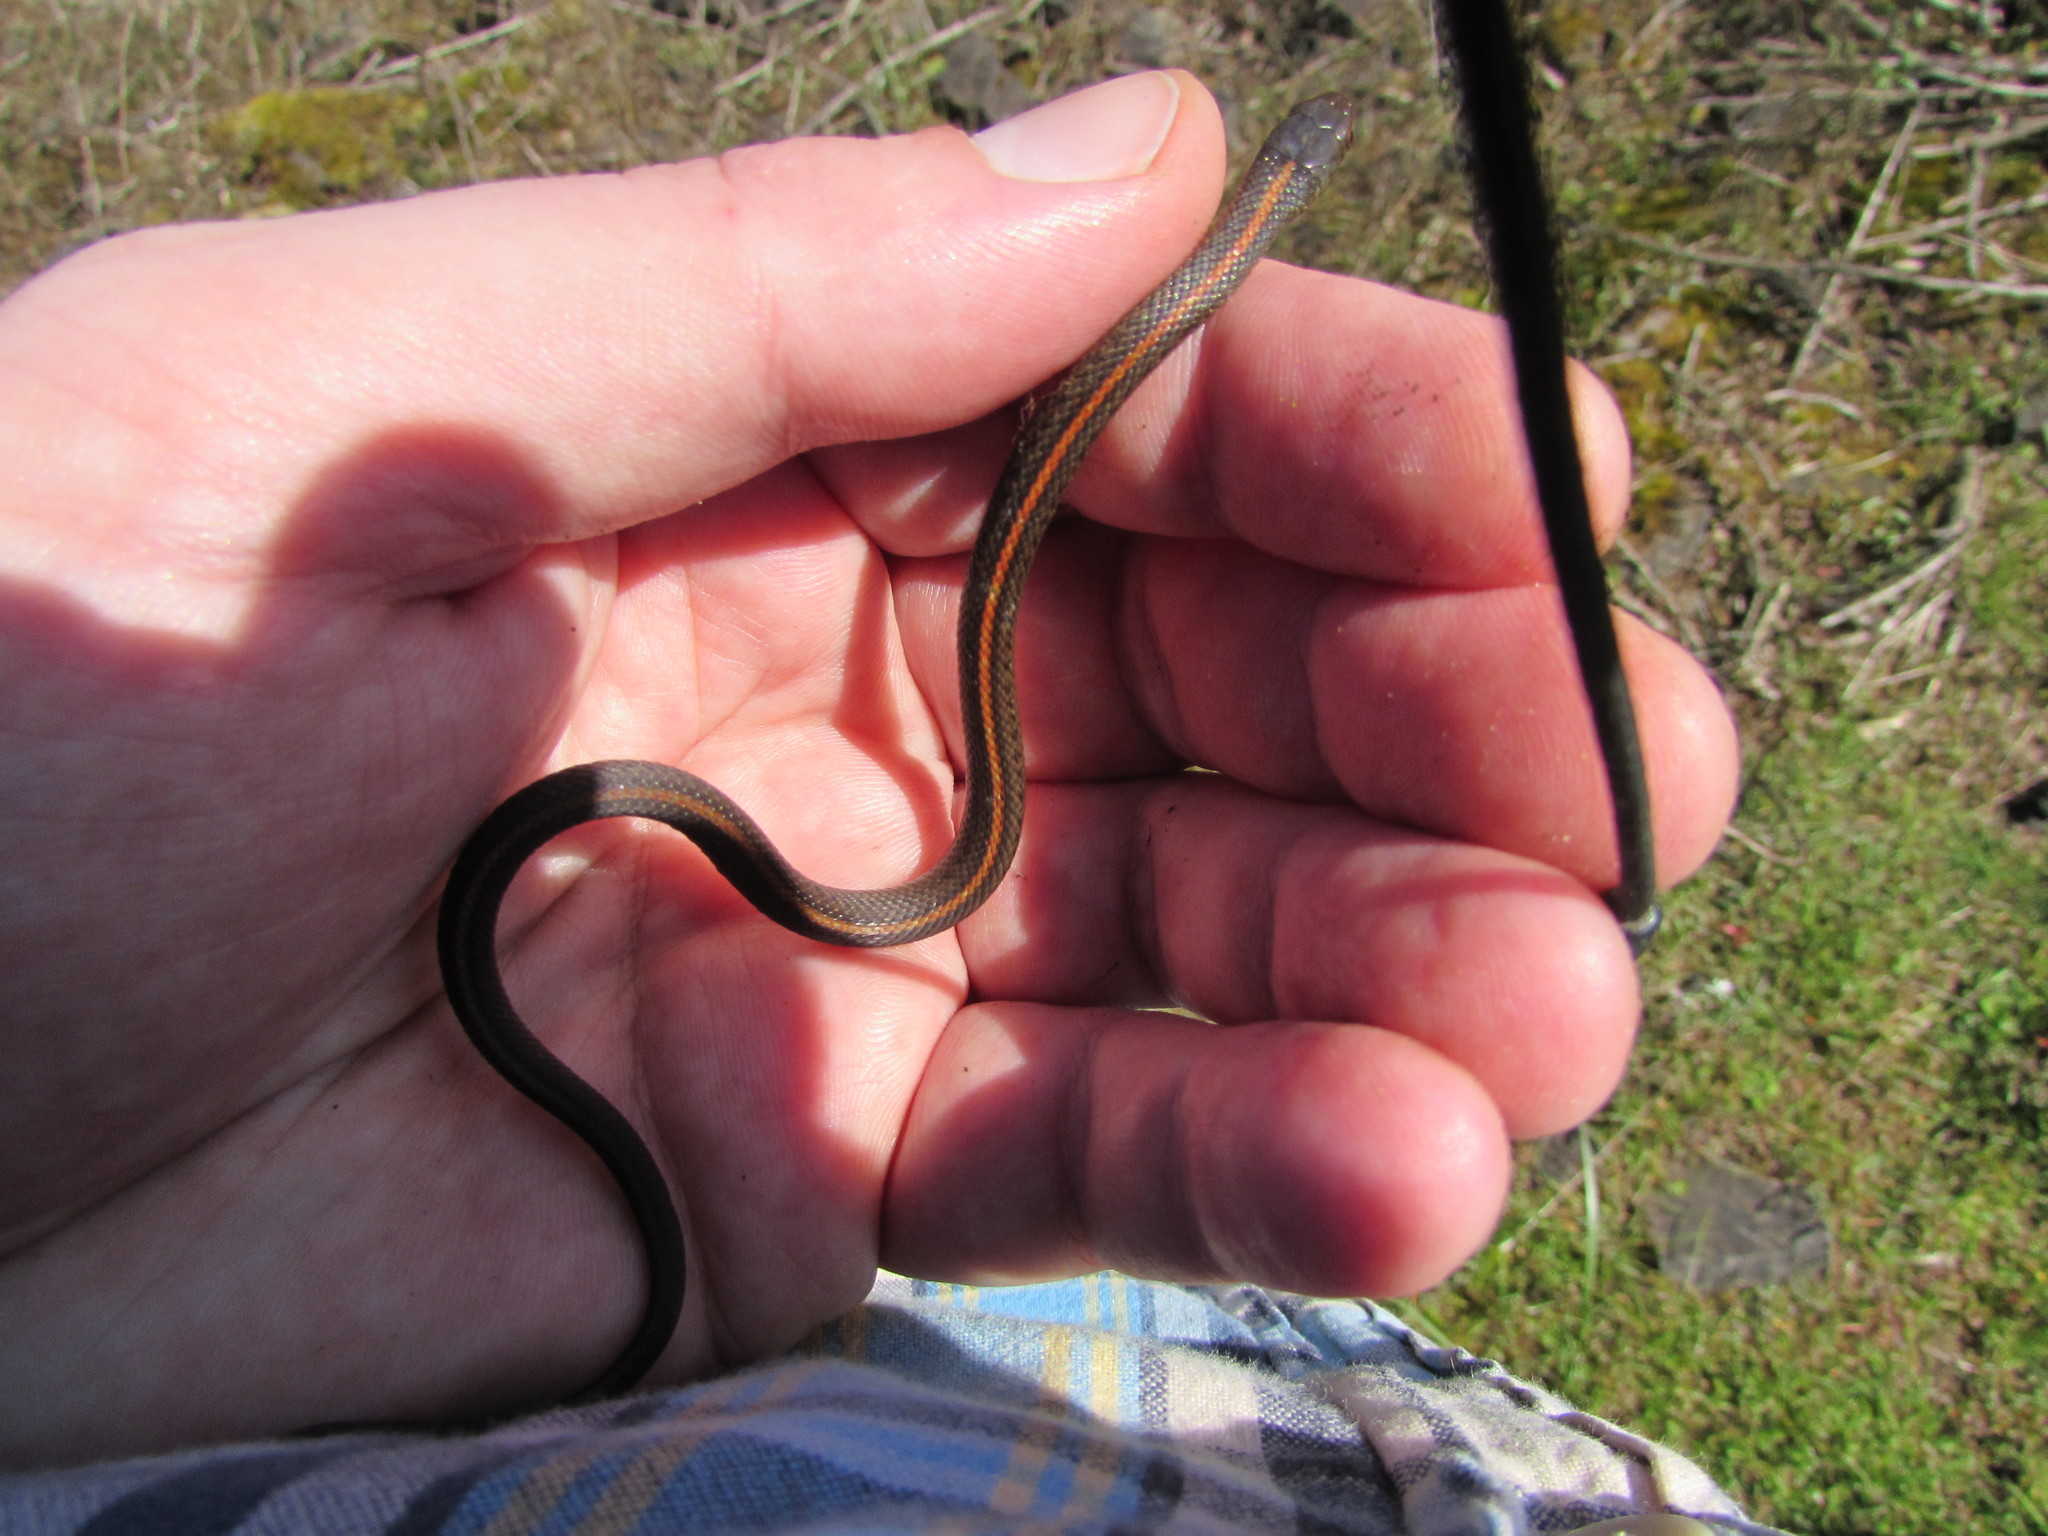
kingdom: Animalia
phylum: Chordata
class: Squamata
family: Colubridae
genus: Thamnophis
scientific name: Thamnophis ordinoides
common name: Northwestern garter snake
